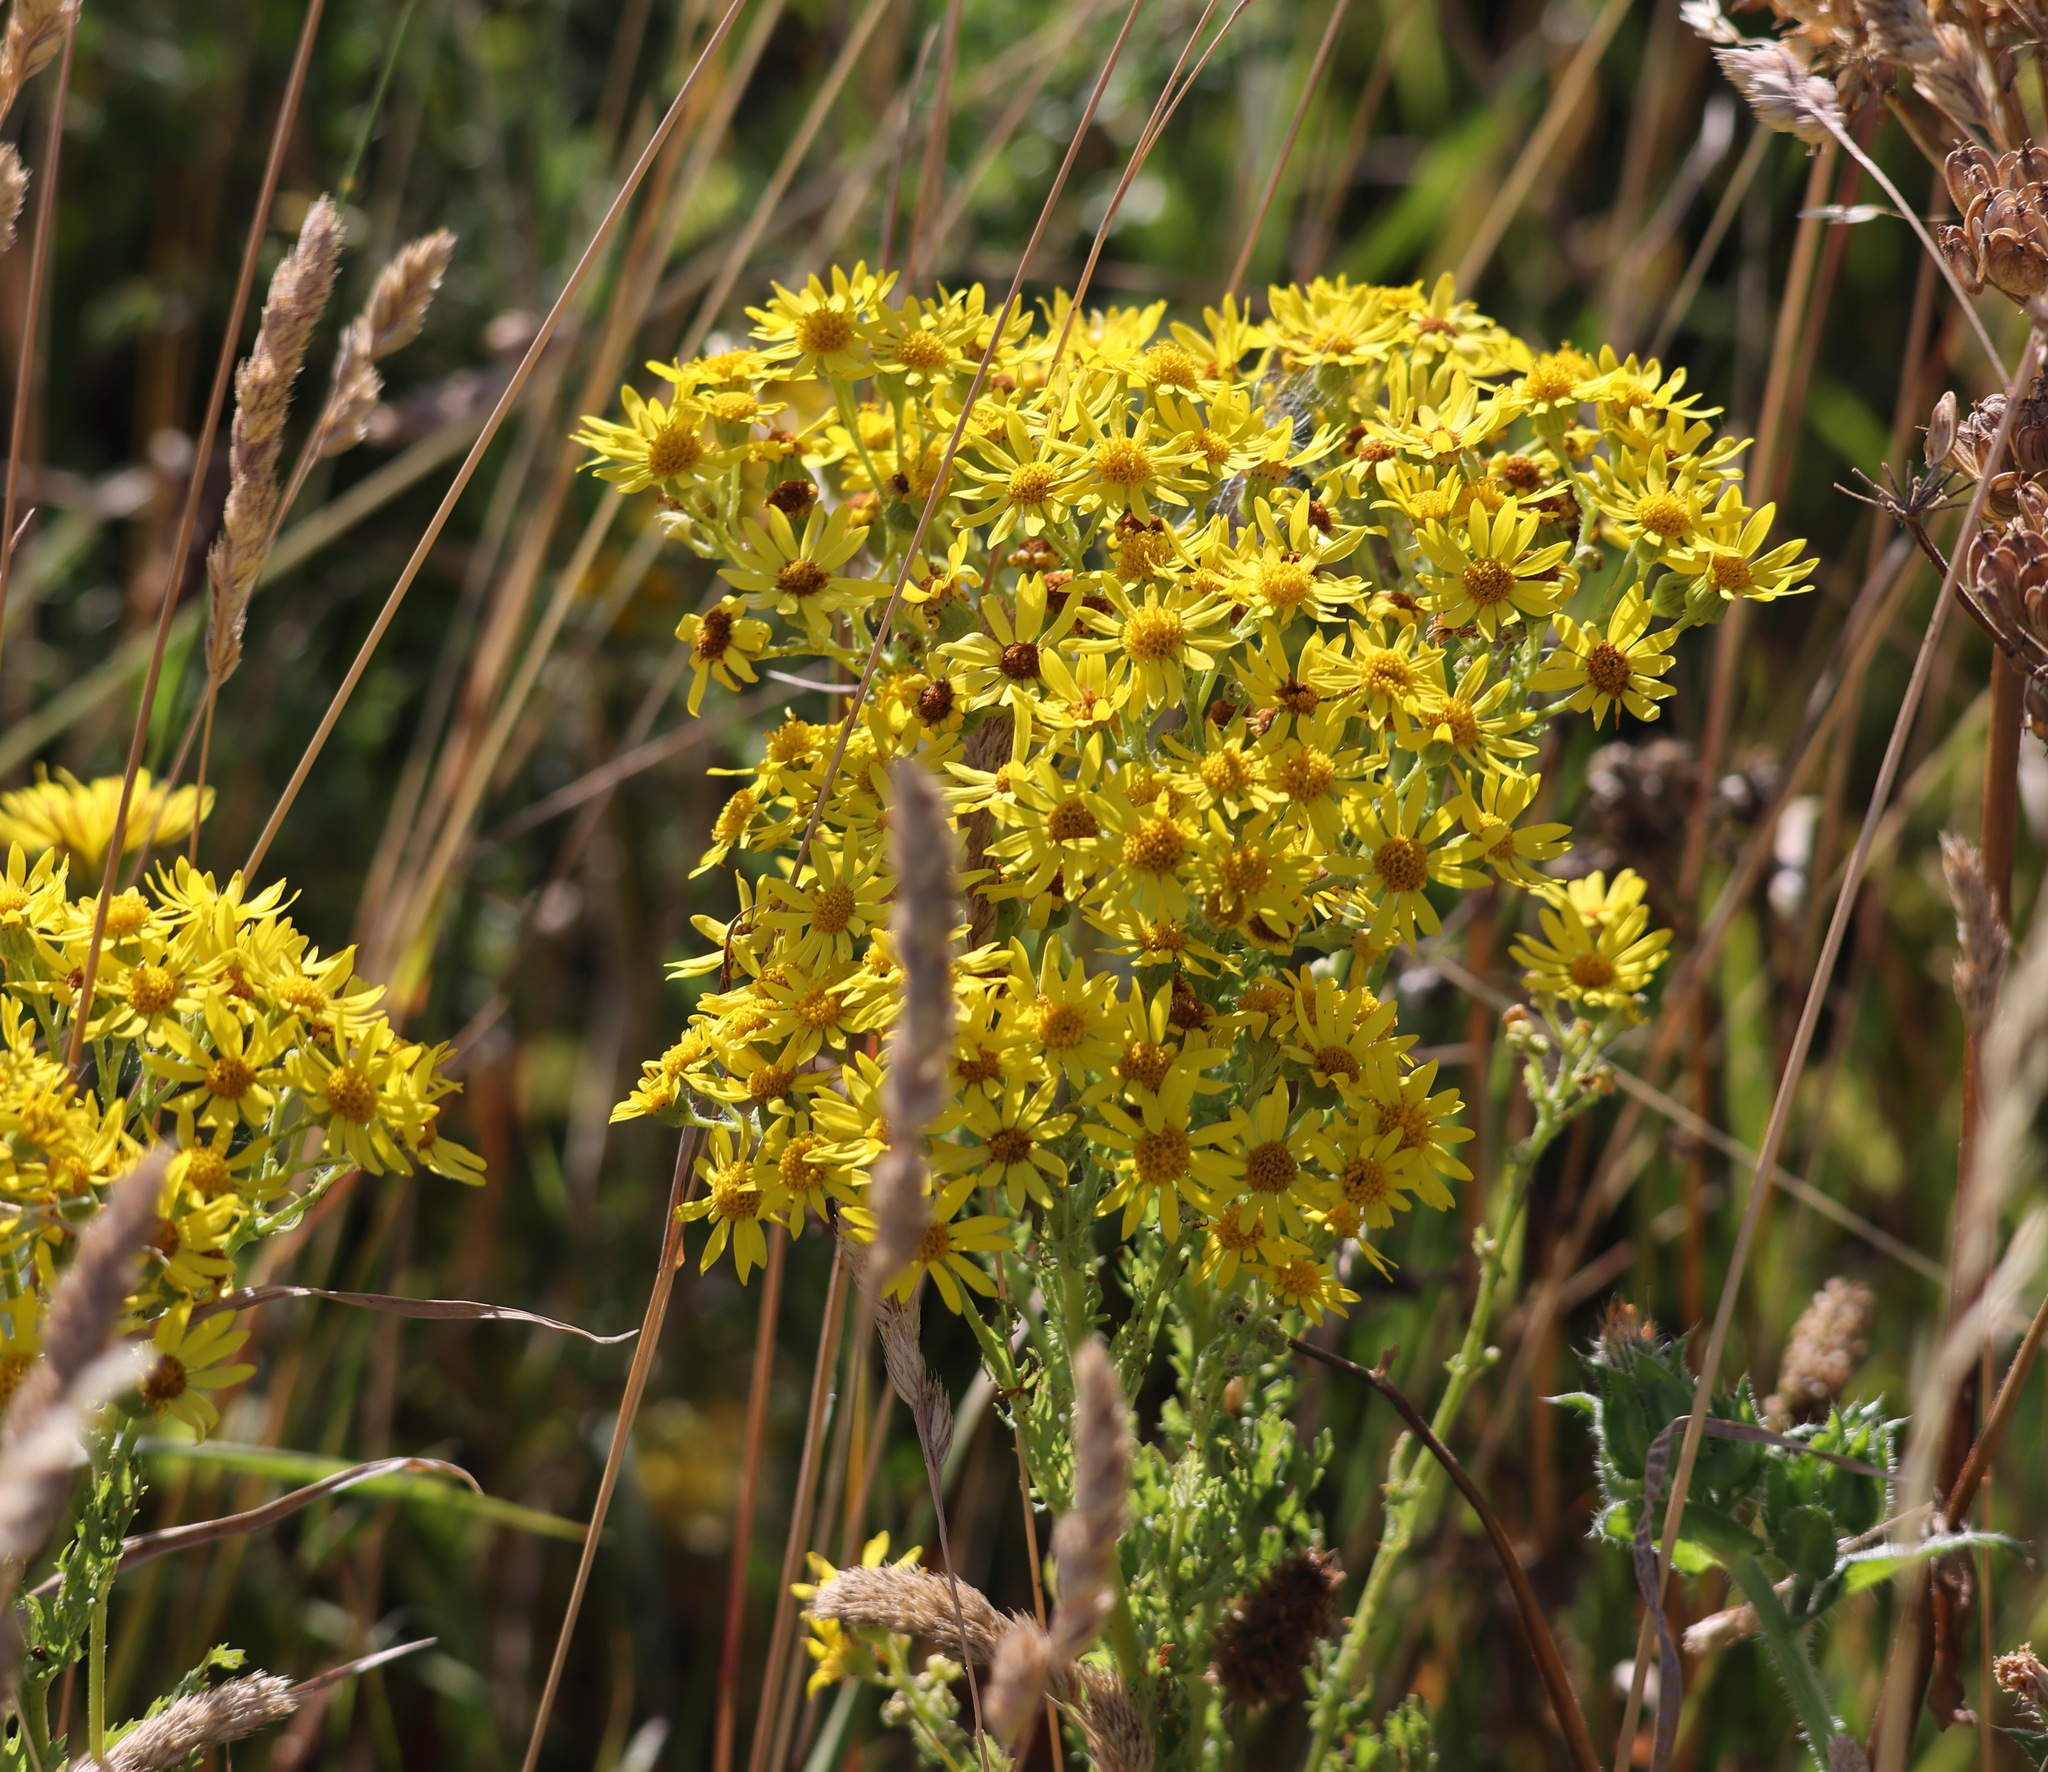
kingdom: Plantae
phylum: Tracheophyta
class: Magnoliopsida
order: Asterales
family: Asteraceae
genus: Jacobaea
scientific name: Jacobaea vulgaris
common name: Stinking willie
